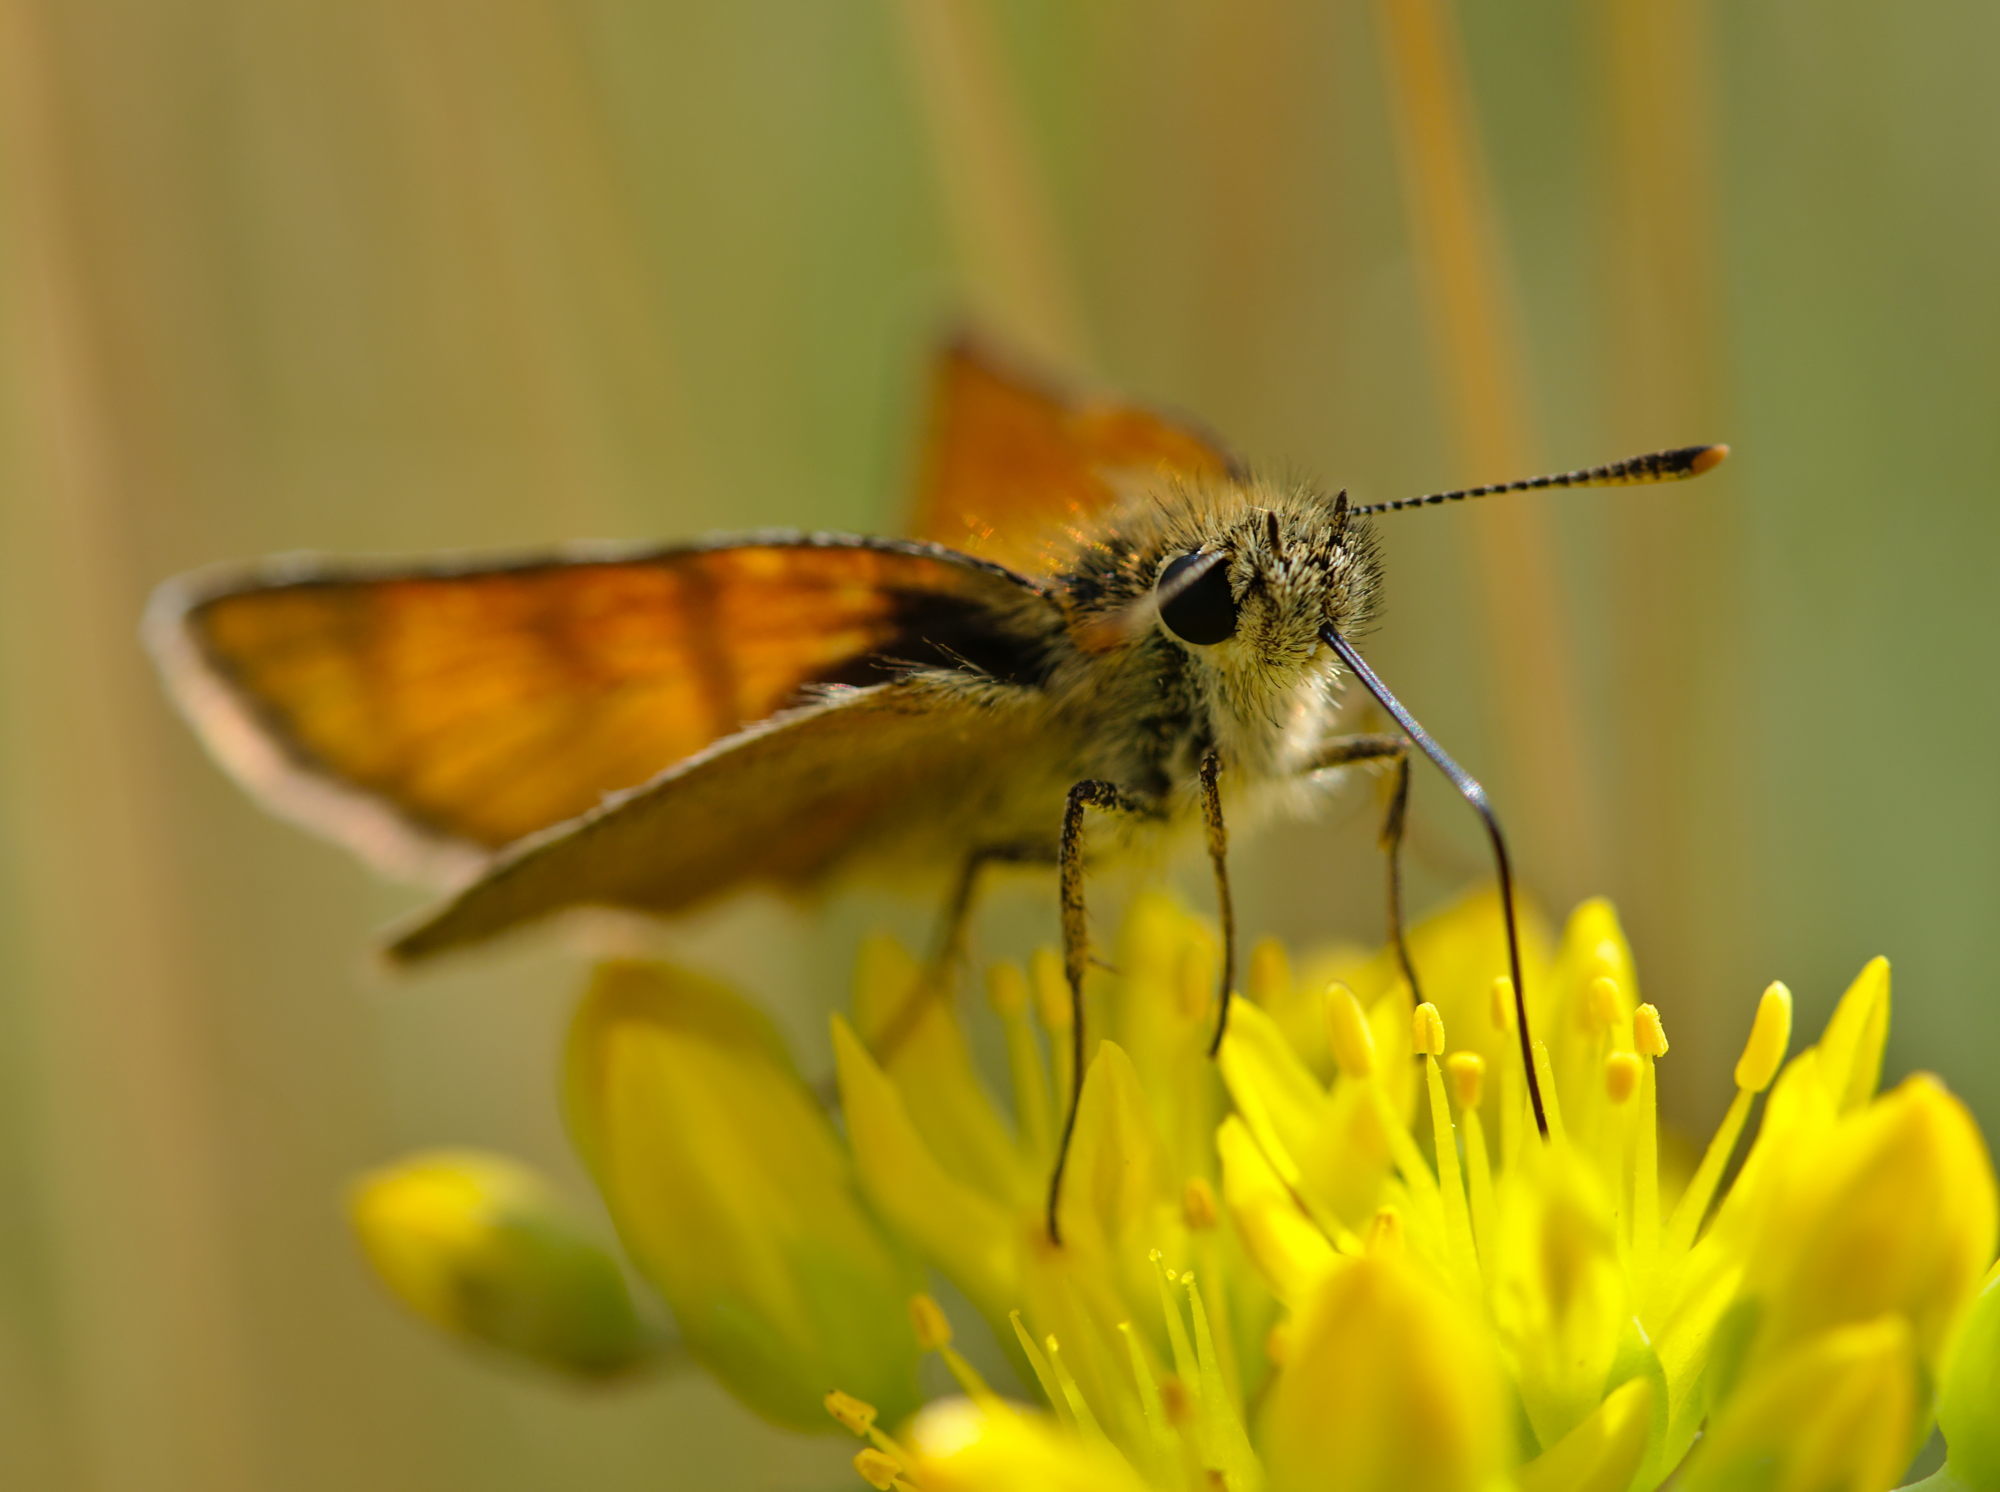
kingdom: Animalia
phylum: Arthropoda
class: Insecta
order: Lepidoptera
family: Hesperiidae
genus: Thymelicus
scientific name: Thymelicus sylvestris
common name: Small skipper
